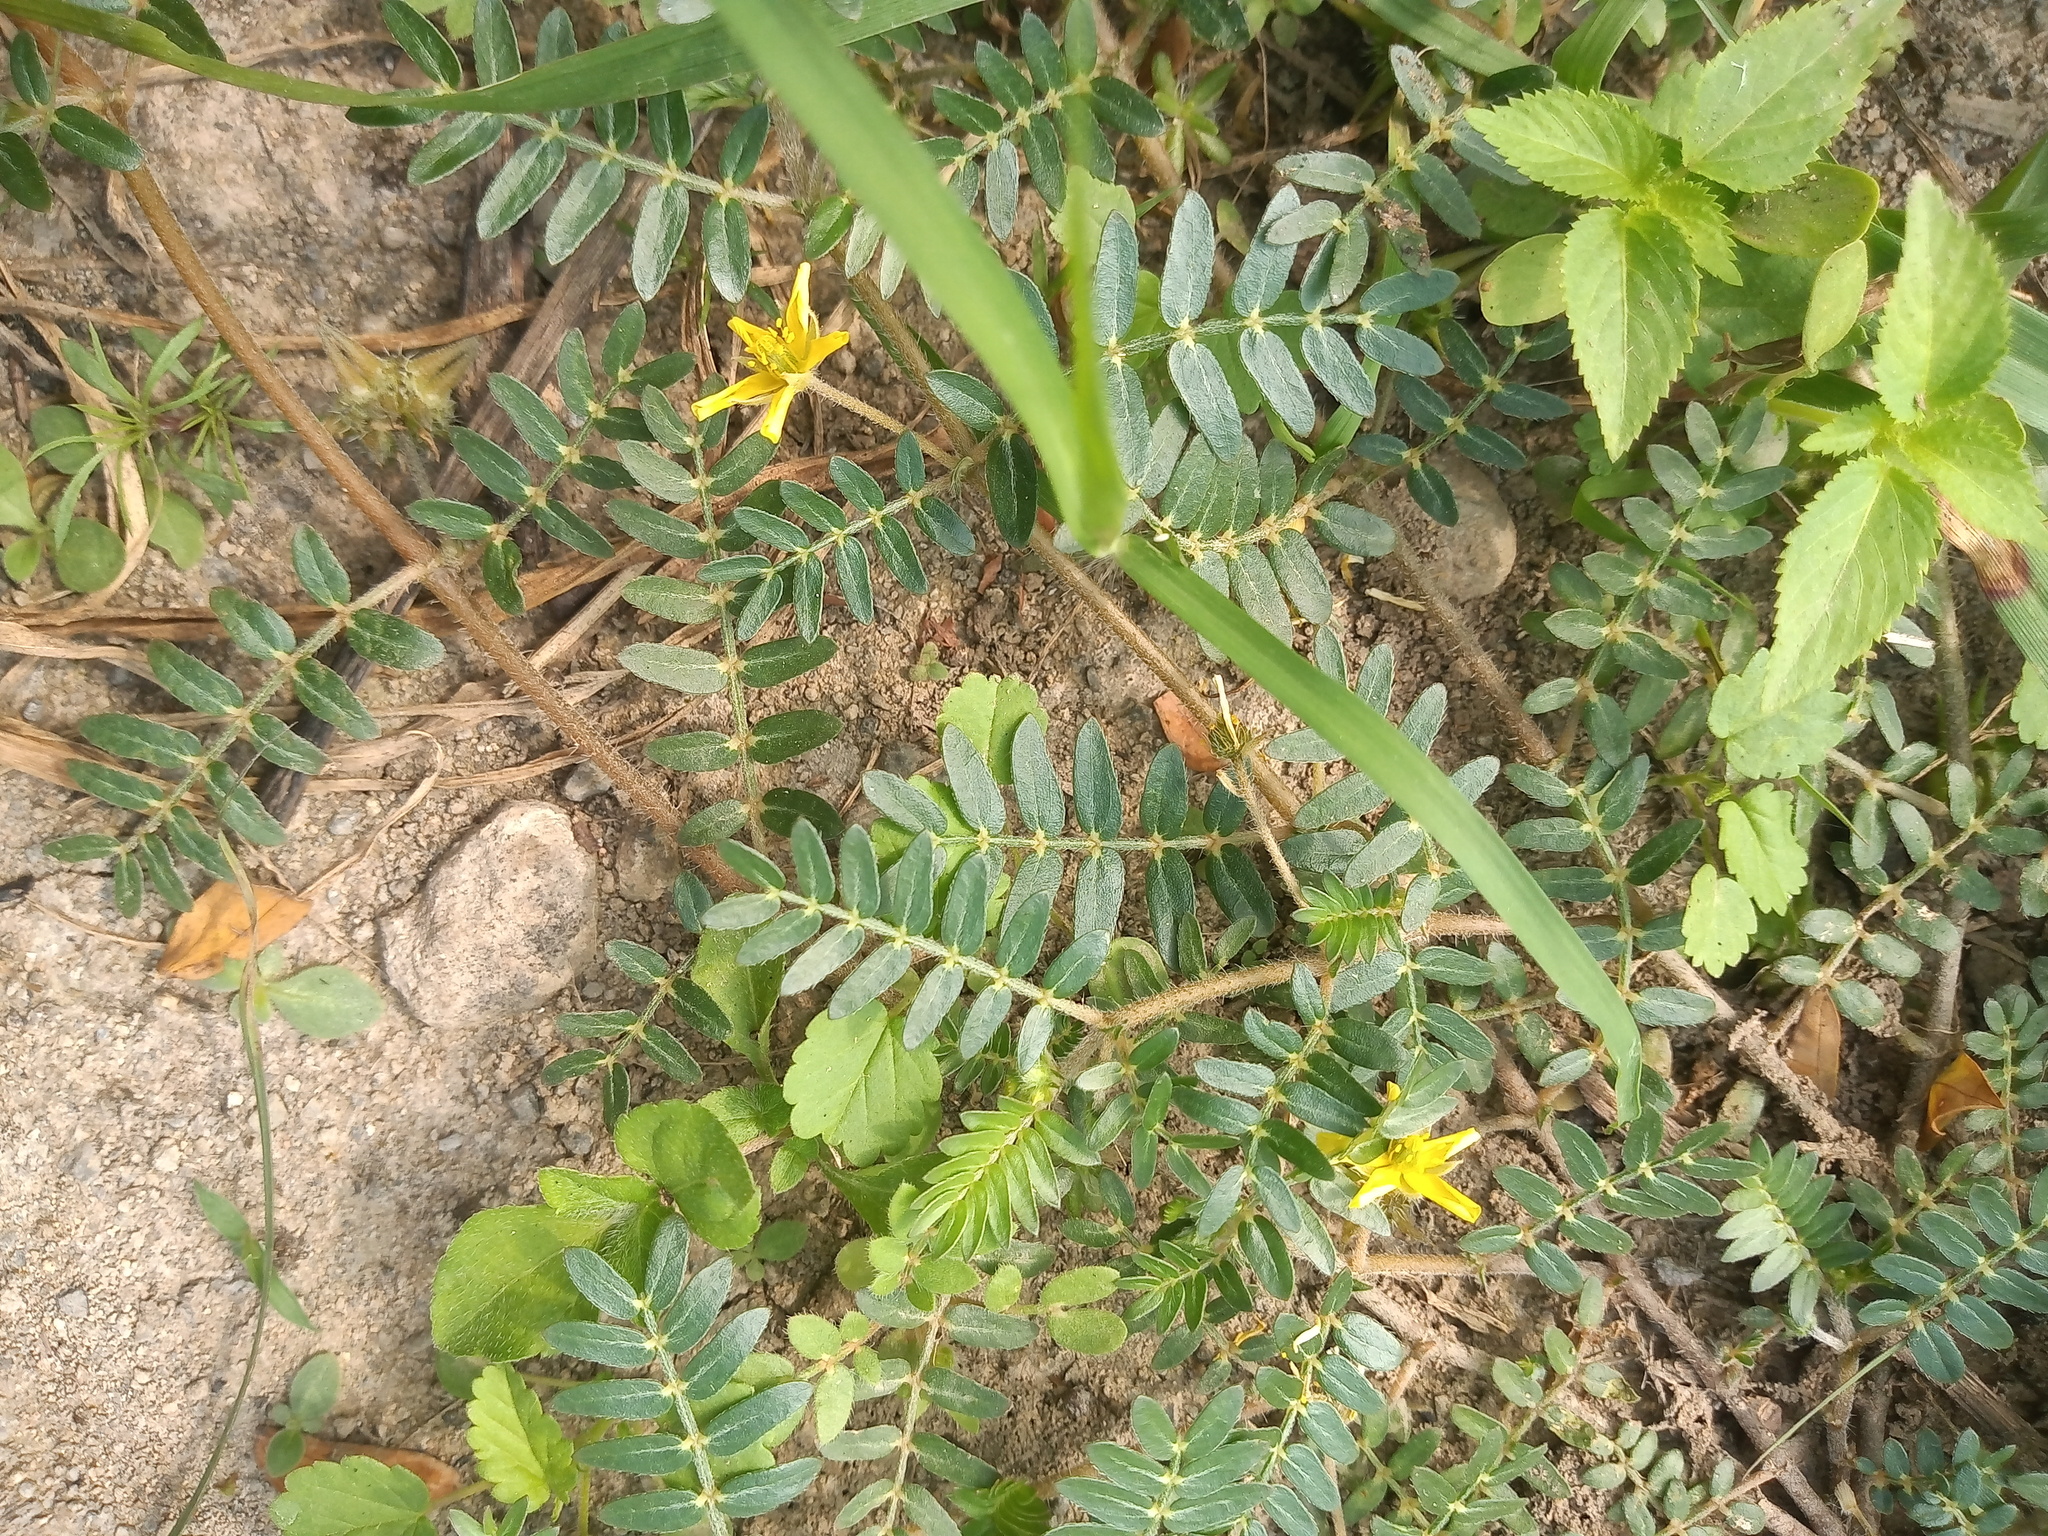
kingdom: Plantae
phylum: Tracheophyta
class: Magnoliopsida
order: Zygophyllales
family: Zygophyllaceae
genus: Tribulus
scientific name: Tribulus terrestris
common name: Puncturevine
